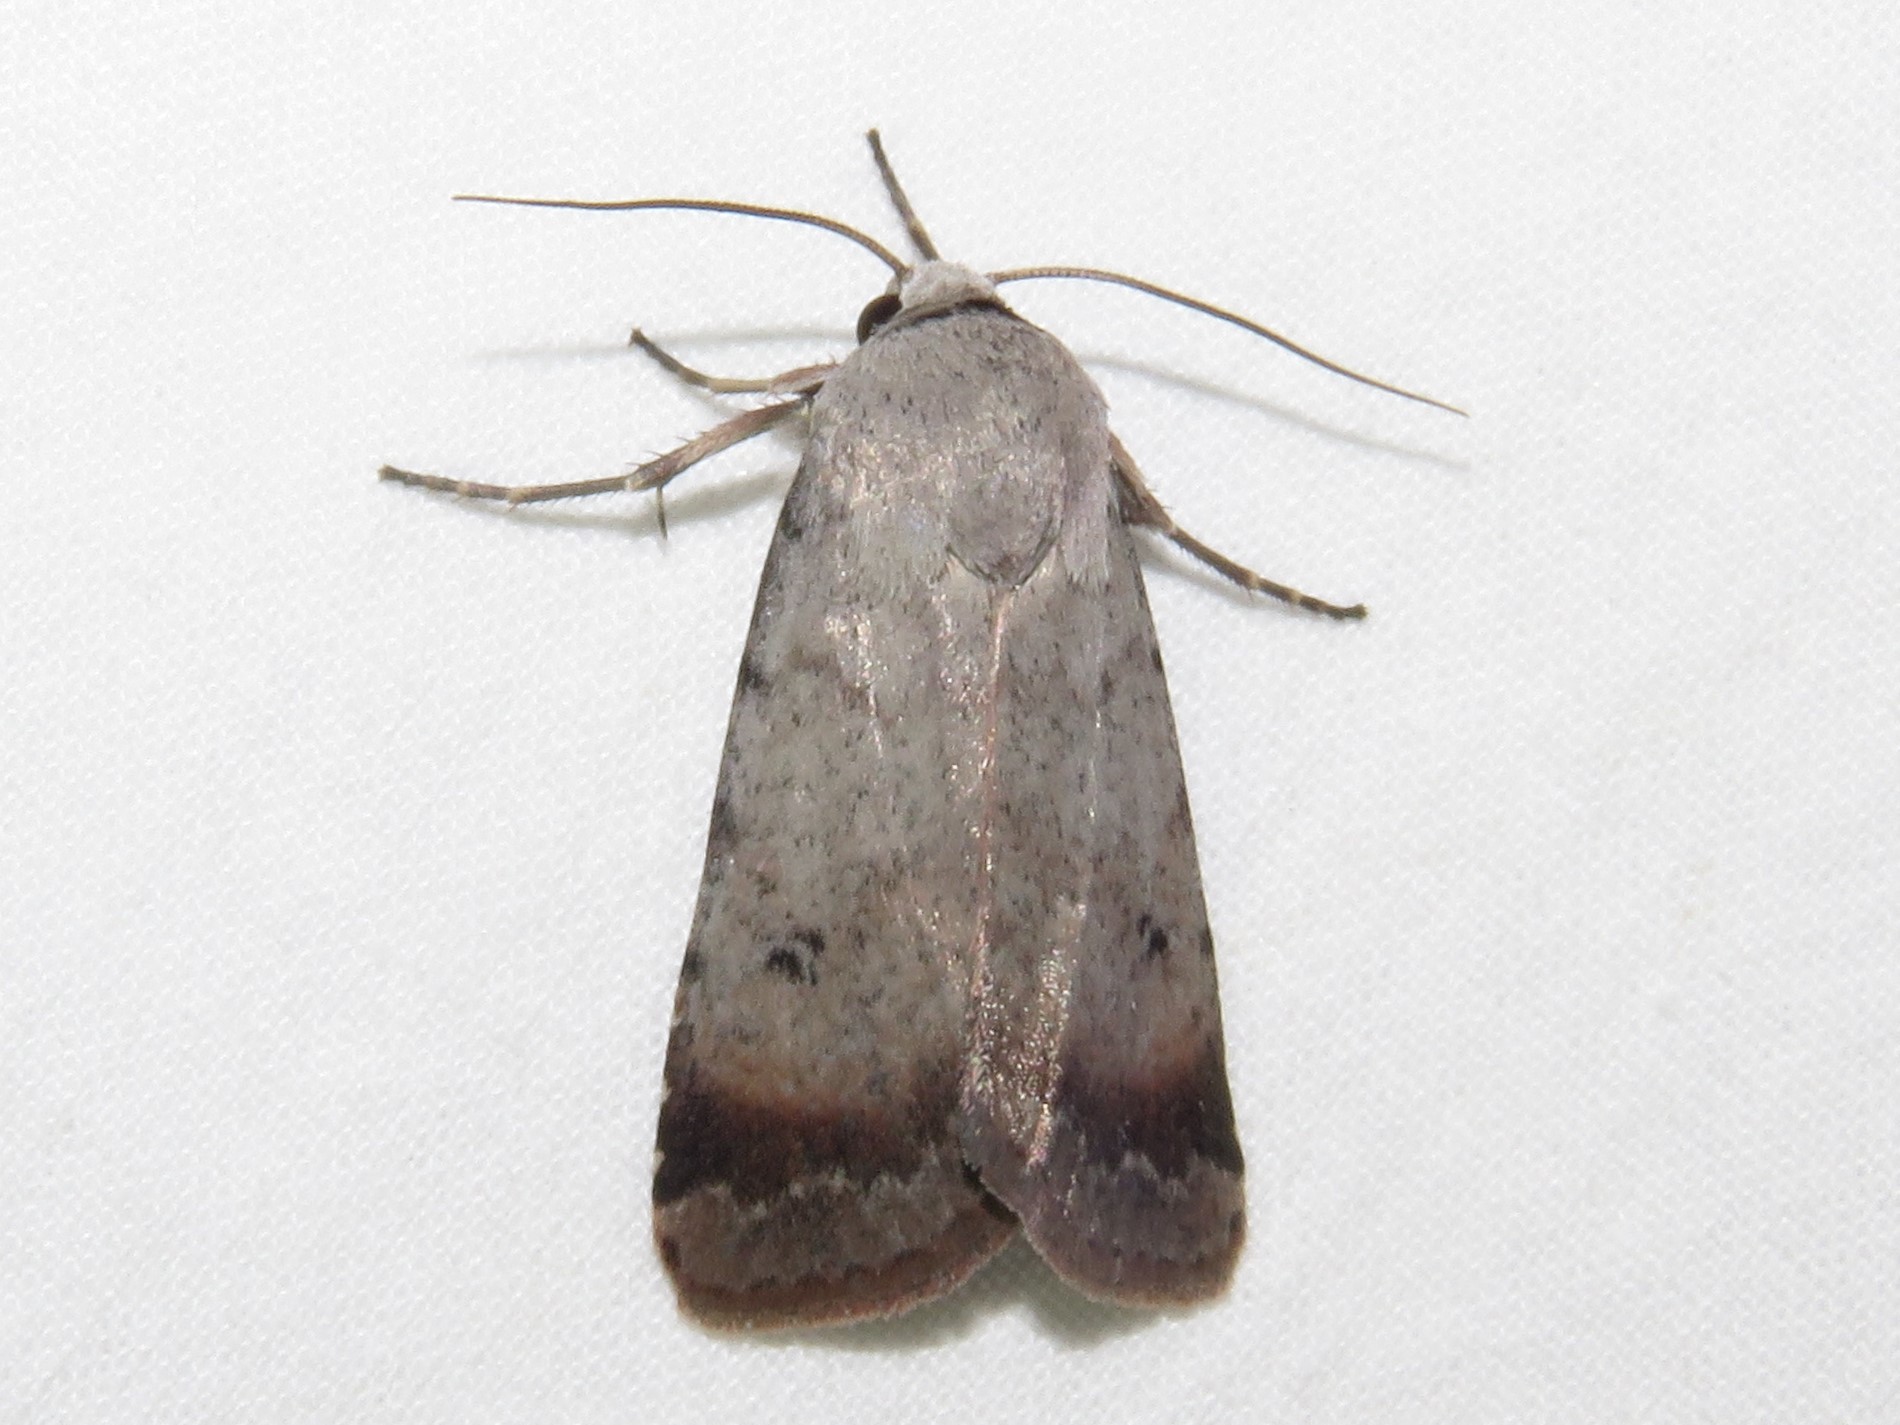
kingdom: Animalia
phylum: Arthropoda
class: Insecta
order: Lepidoptera
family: Noctuidae
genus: Anicla
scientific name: Anicla illapsa
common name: Snowy dart
